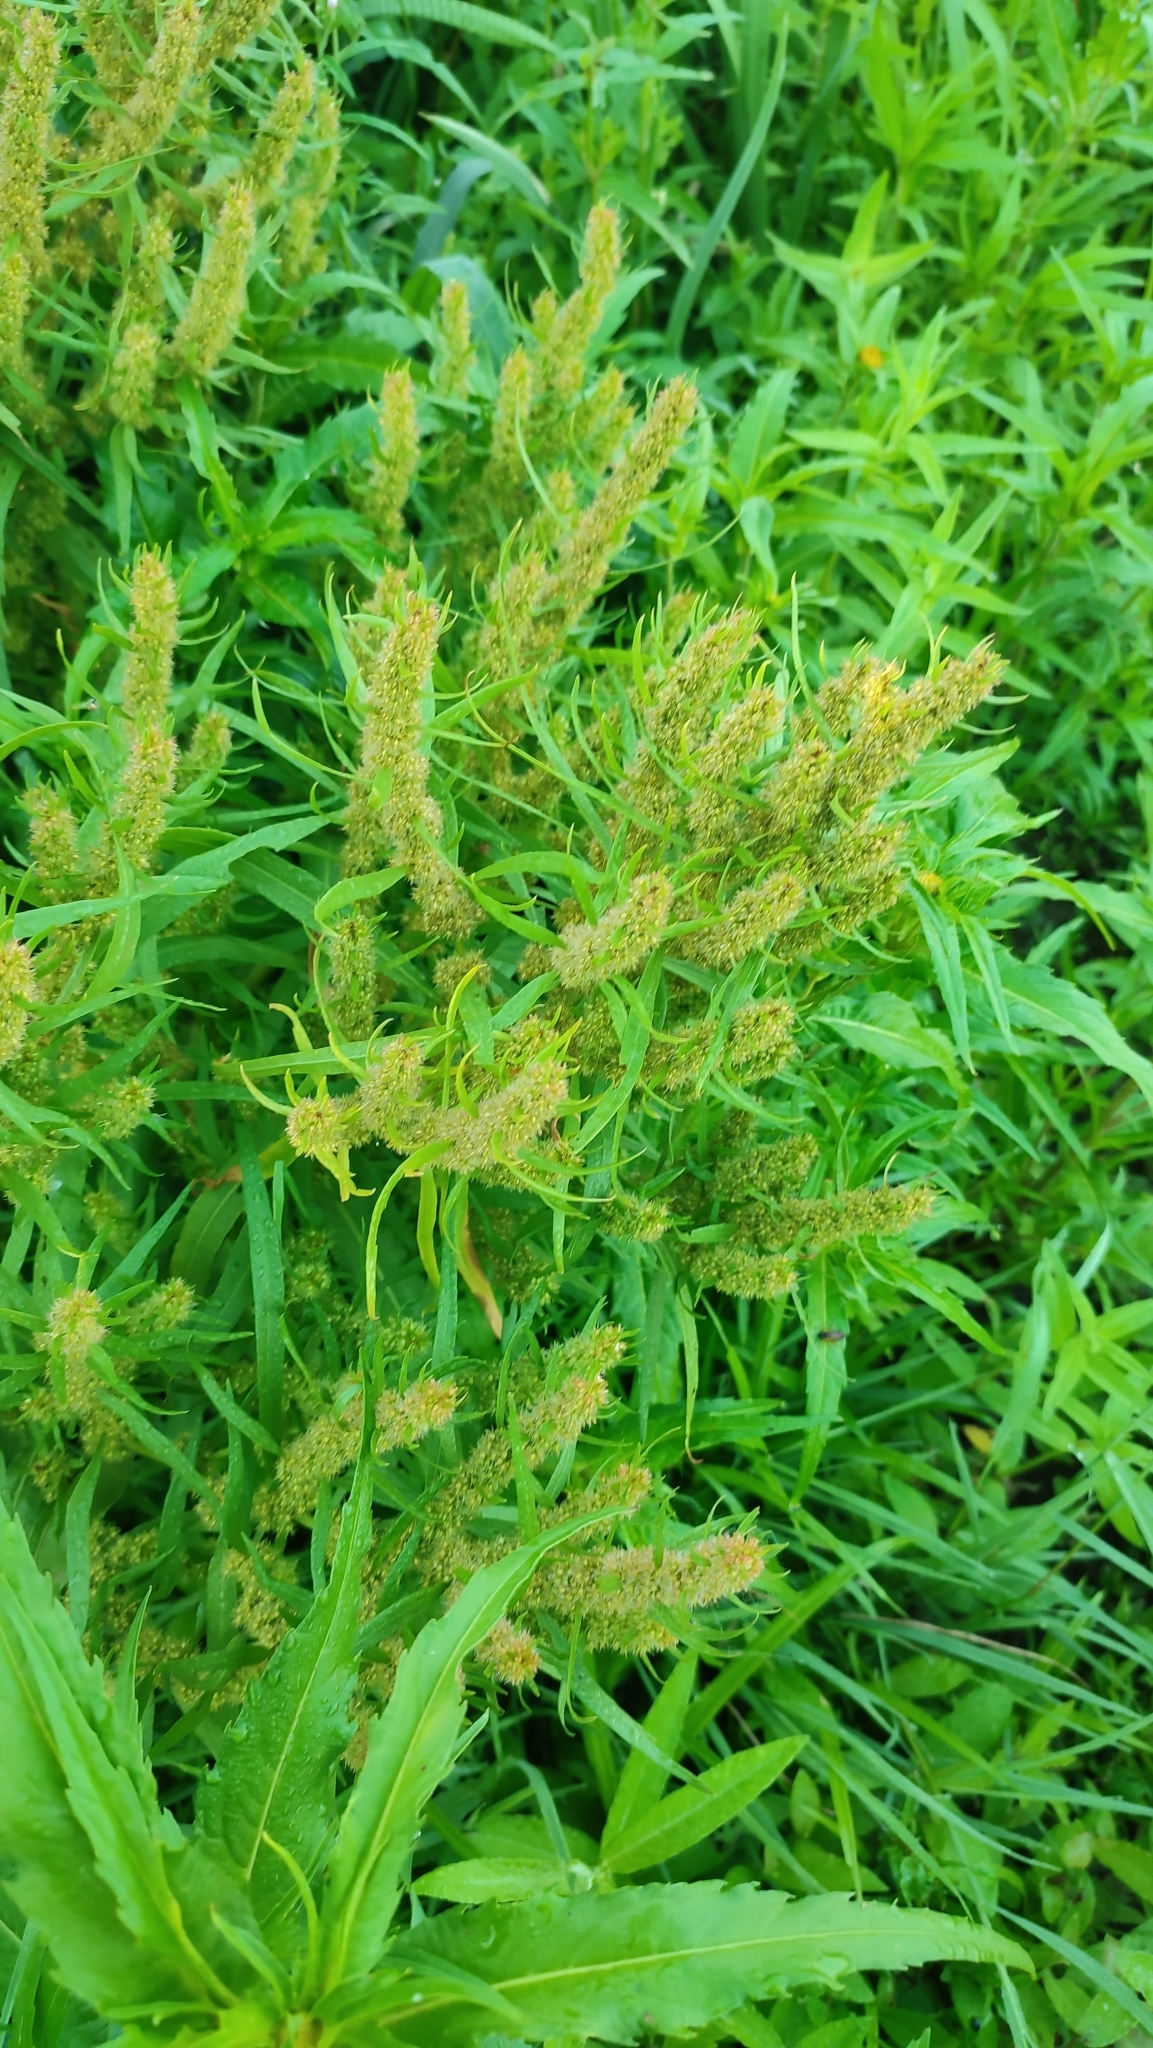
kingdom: Plantae
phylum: Tracheophyta
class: Magnoliopsida
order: Caryophyllales
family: Polygonaceae
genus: Rumex
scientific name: Rumex maritimus
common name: Golden dock
